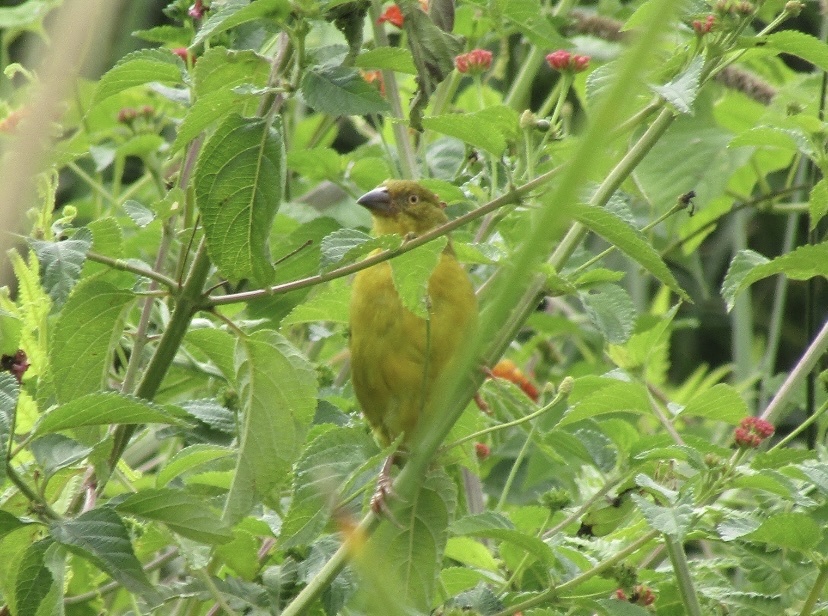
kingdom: Animalia
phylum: Chordata
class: Aves
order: Passeriformes
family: Ploceidae
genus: Ploceus
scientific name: Ploceus xanthops
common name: Holub's golden weaver
